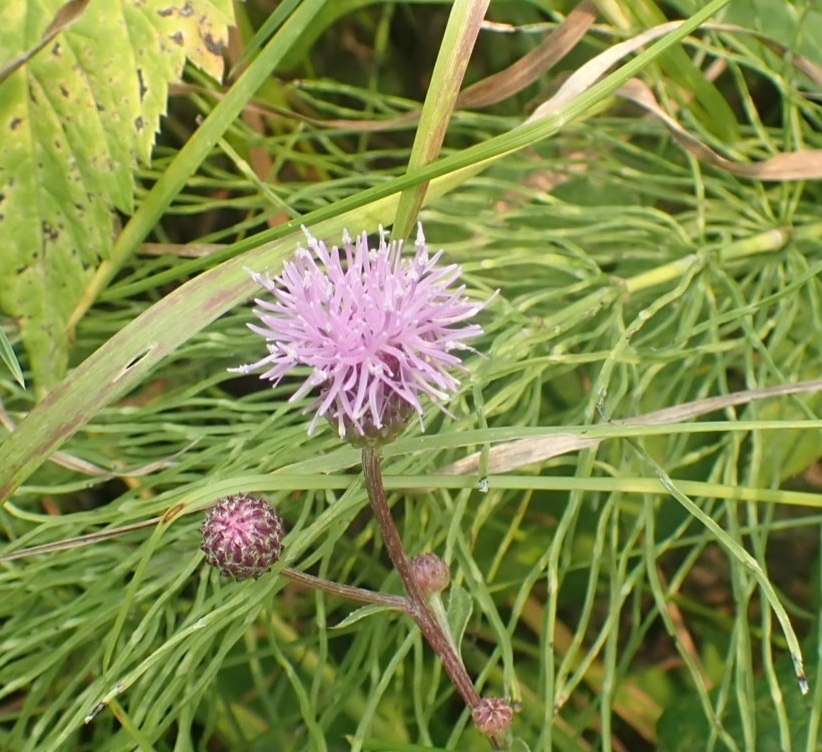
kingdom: Plantae
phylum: Tracheophyta
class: Magnoliopsida
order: Asterales
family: Asteraceae
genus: Cirsium
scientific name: Cirsium arvense
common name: Creeping thistle
